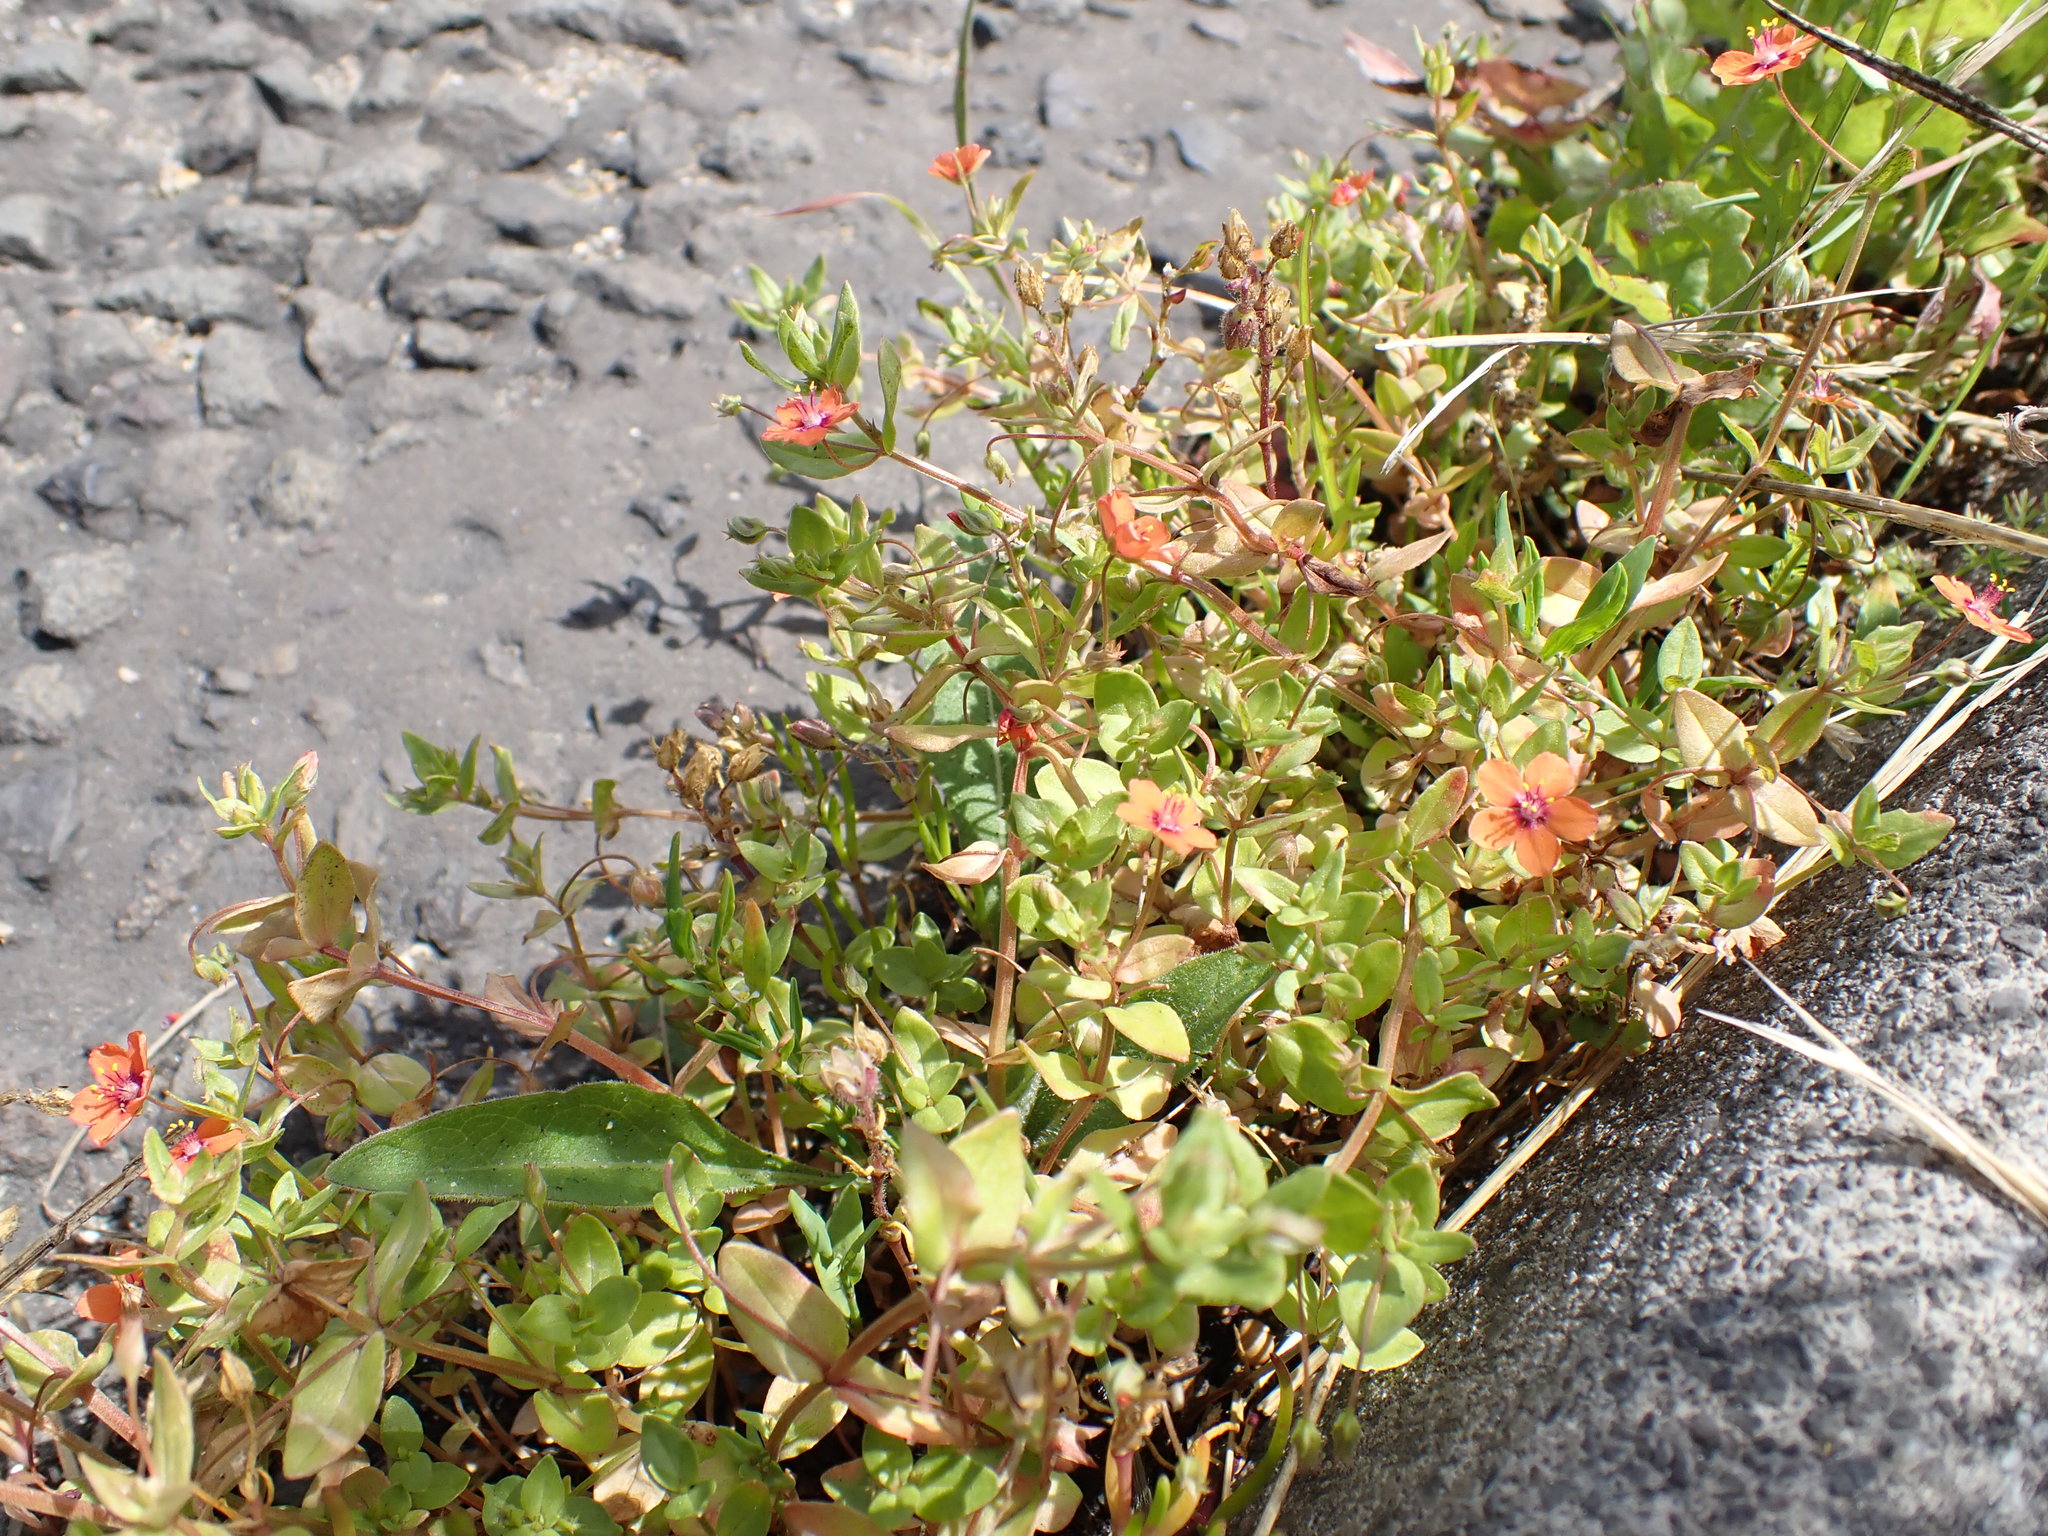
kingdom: Plantae
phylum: Tracheophyta
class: Magnoliopsida
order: Ericales
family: Primulaceae
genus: Lysimachia
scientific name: Lysimachia arvensis
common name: Scarlet pimpernel
